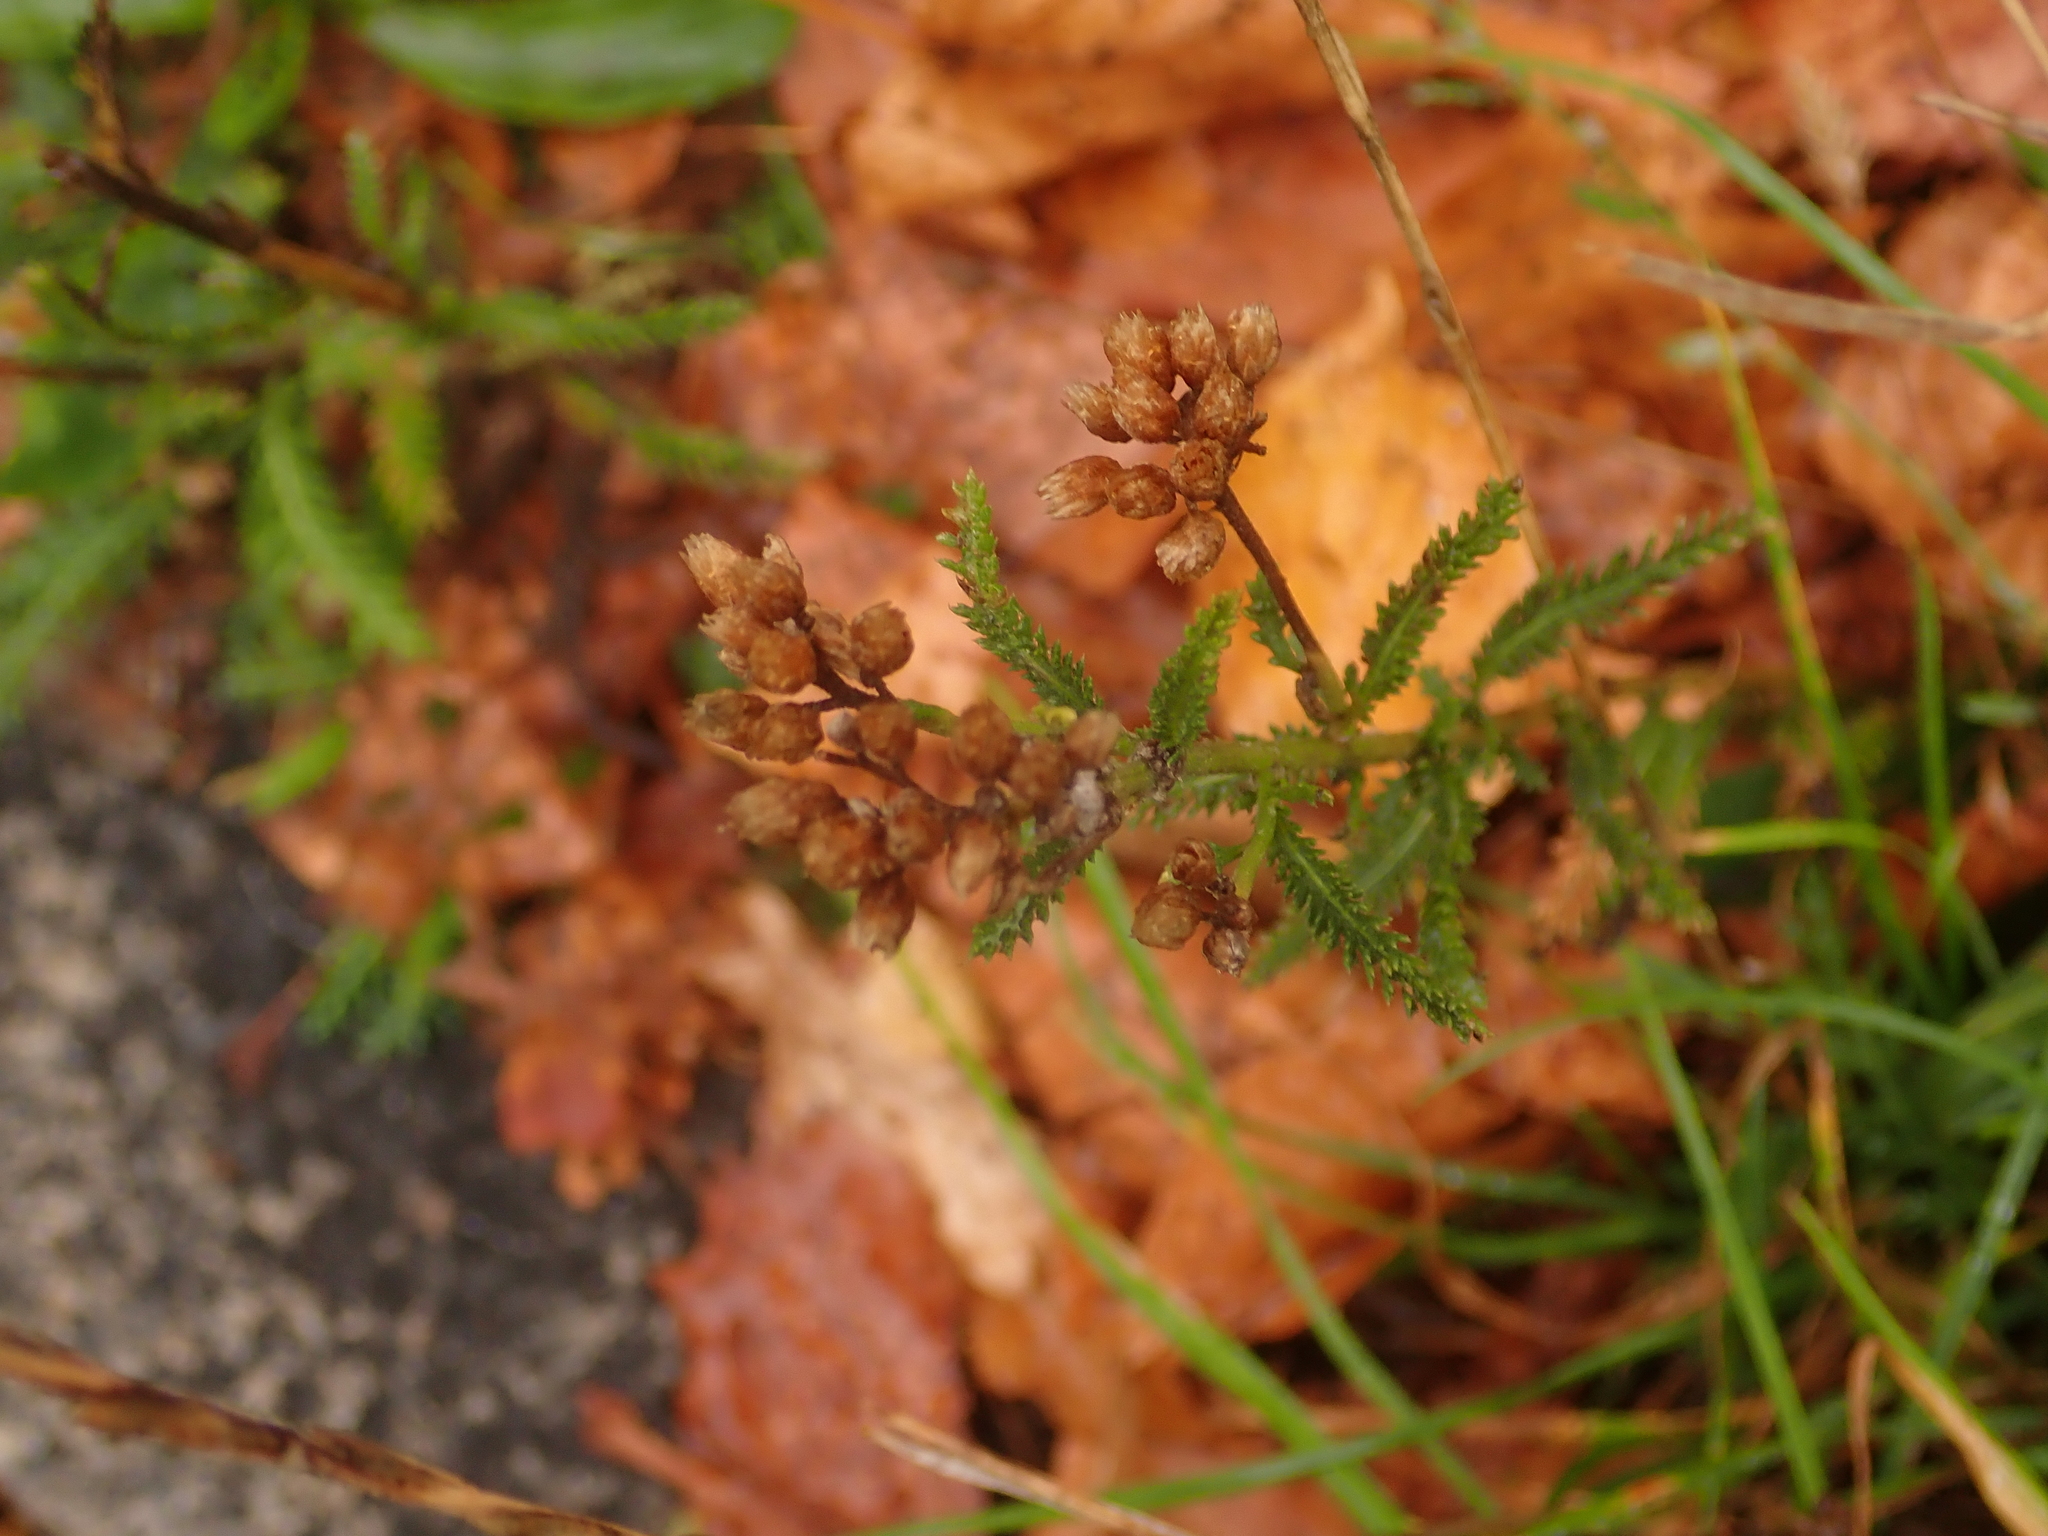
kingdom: Plantae
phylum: Tracheophyta
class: Magnoliopsida
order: Asterales
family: Asteraceae
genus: Achillea
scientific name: Achillea millefolium
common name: Yarrow
